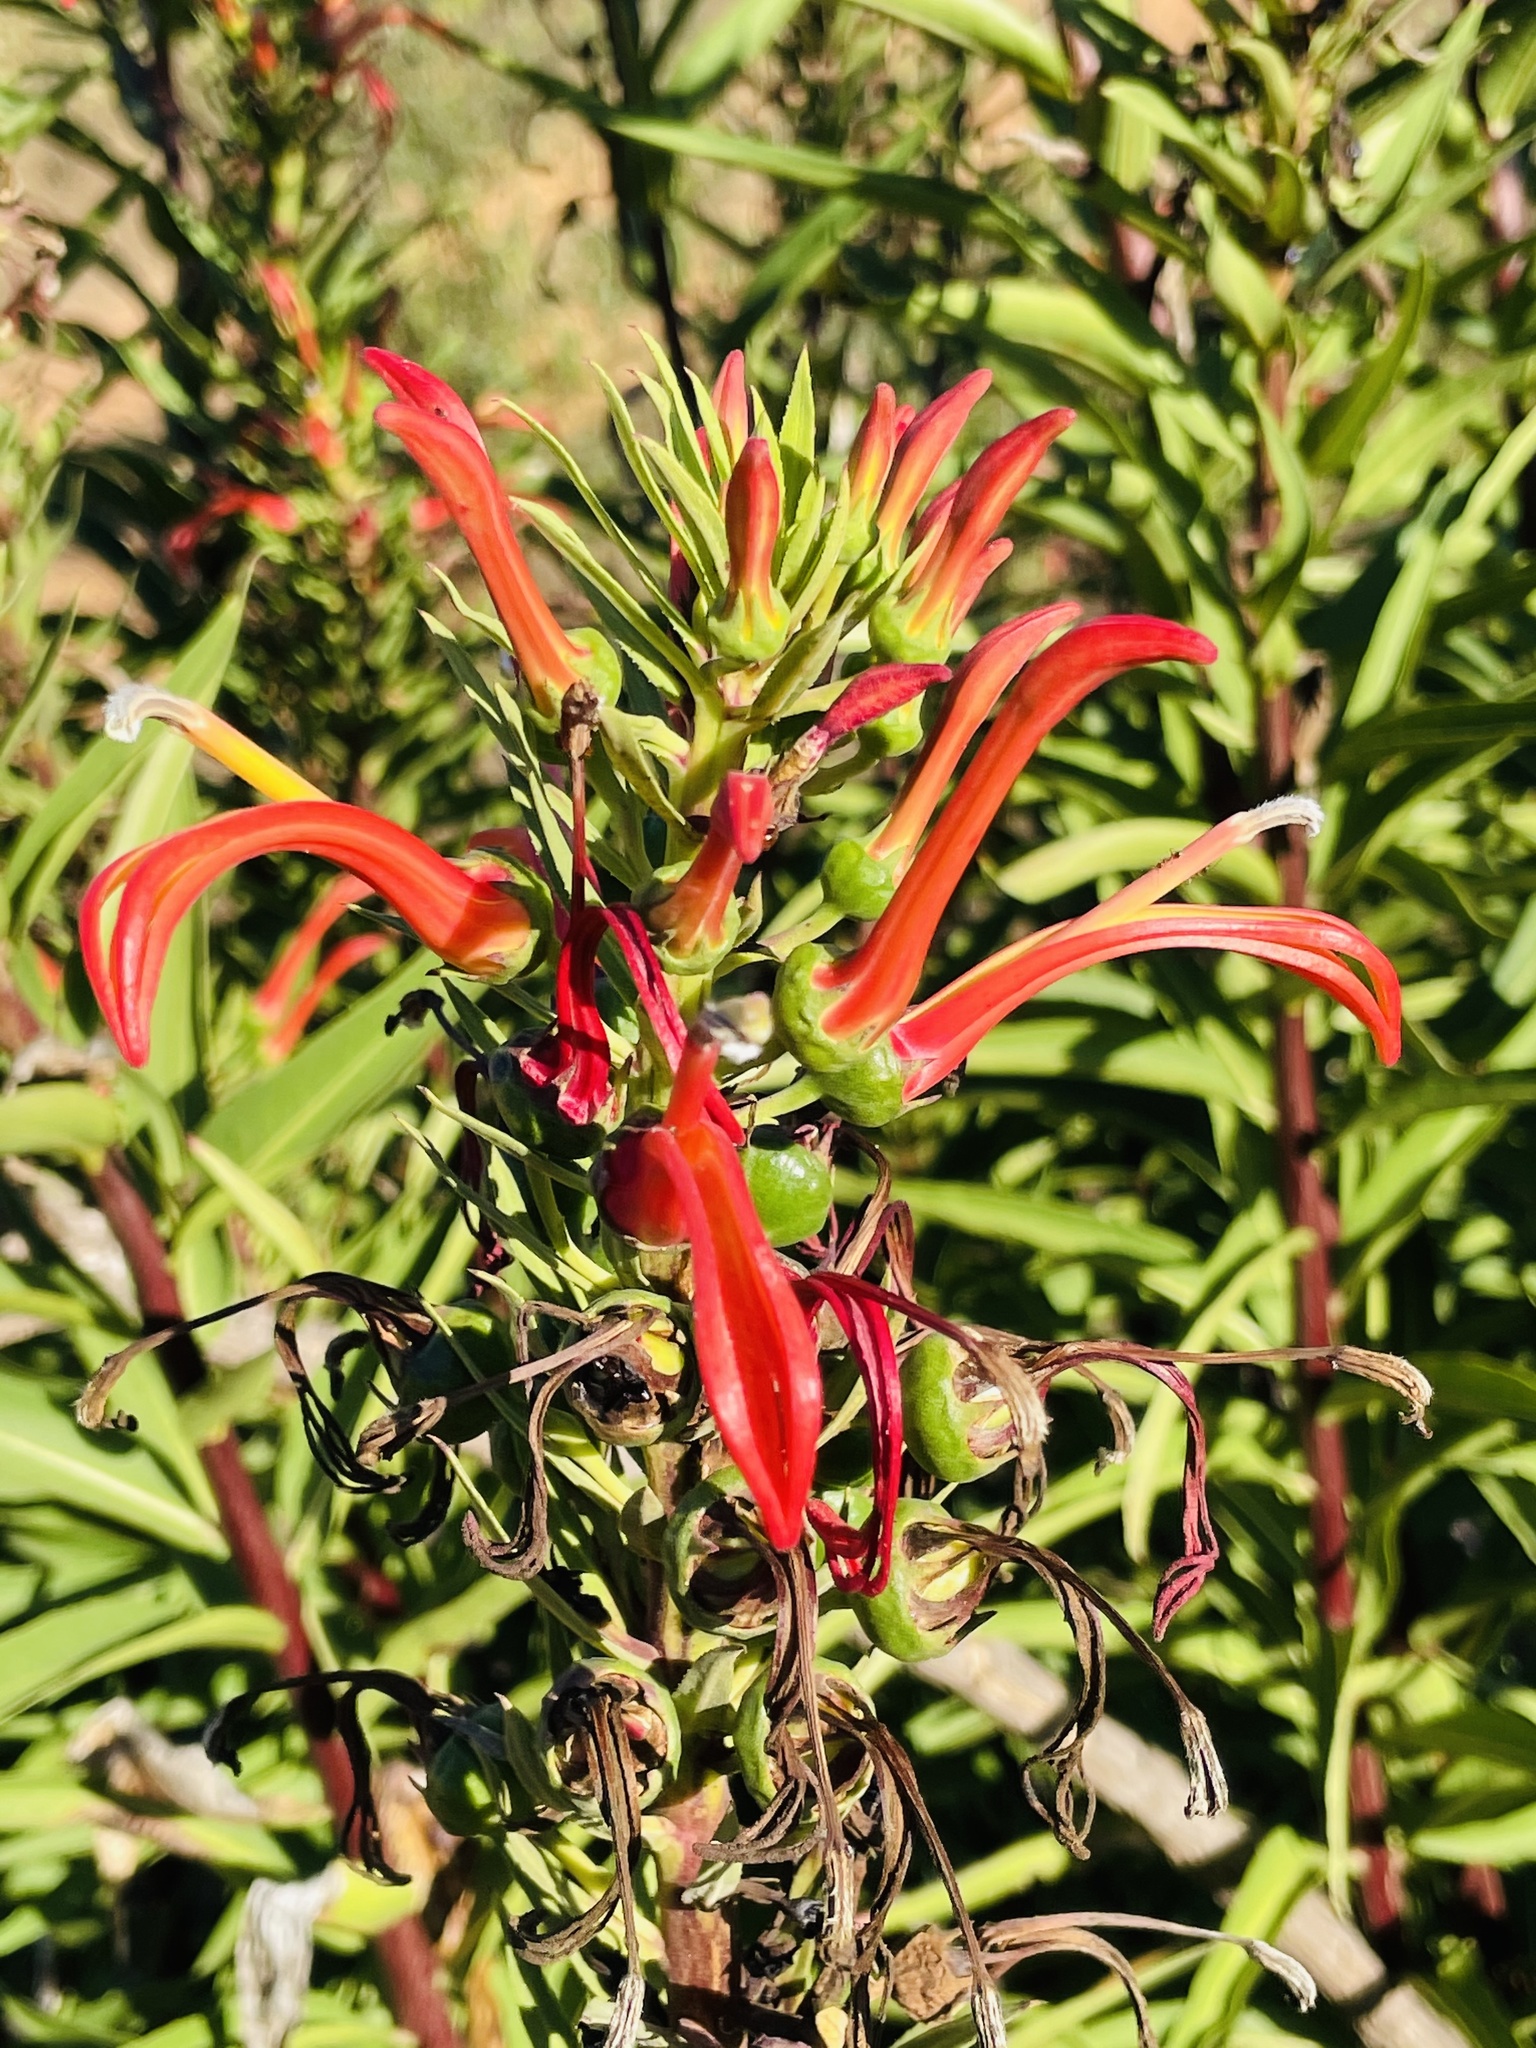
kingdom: Plantae
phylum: Tracheophyta
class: Magnoliopsida
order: Asterales
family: Campanulaceae
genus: Lobelia
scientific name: Lobelia excelsa
